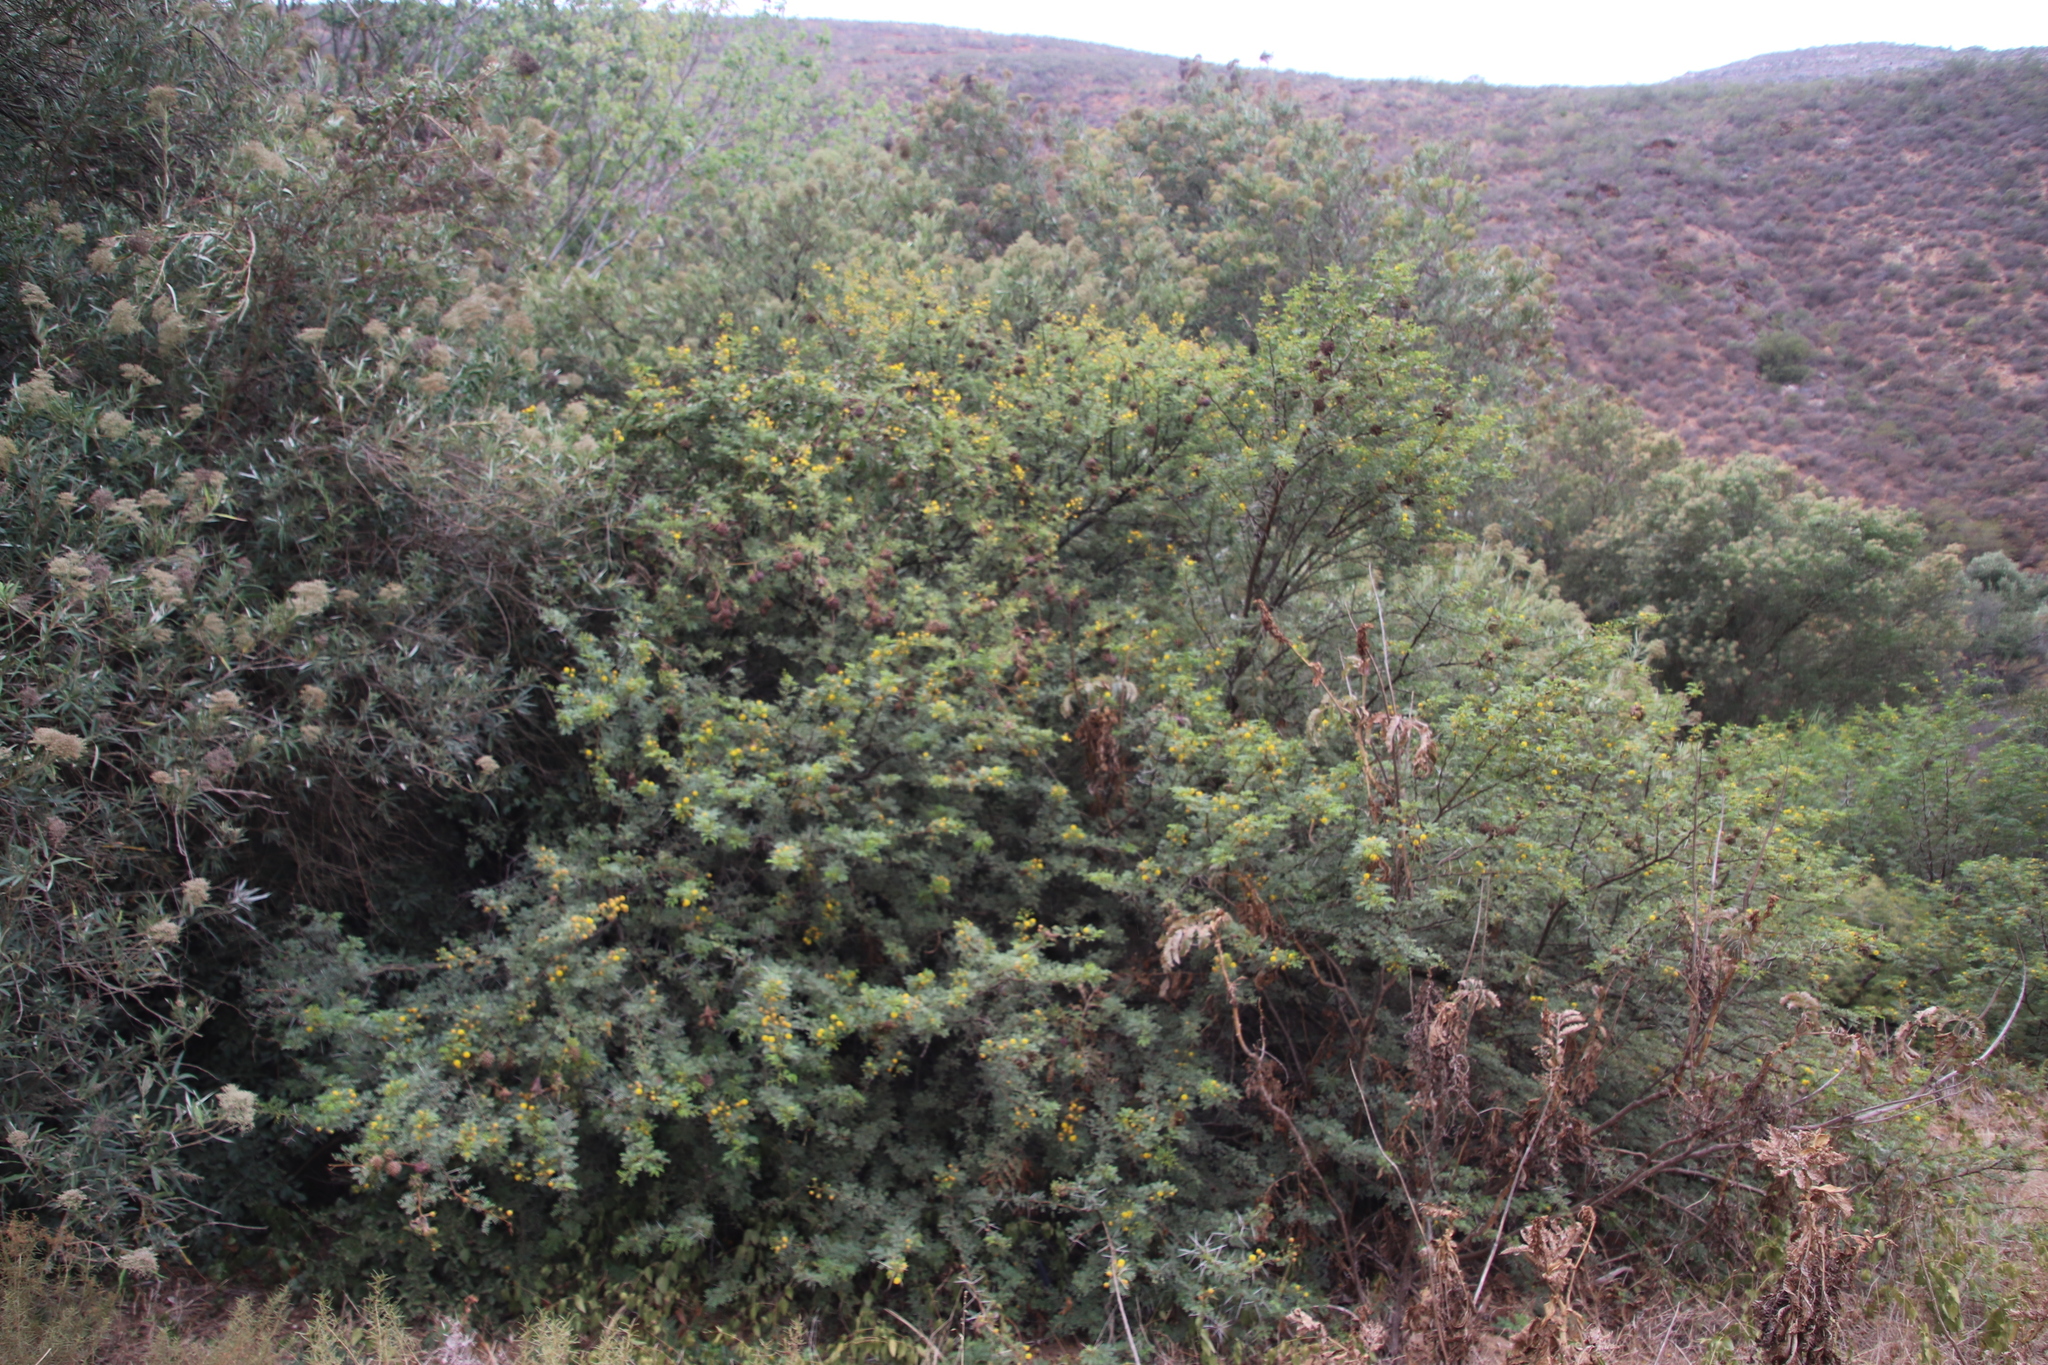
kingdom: Plantae
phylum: Tracheophyta
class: Magnoliopsida
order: Fabales
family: Fabaceae
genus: Vachellia
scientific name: Vachellia karroo
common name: Sweet thorn
